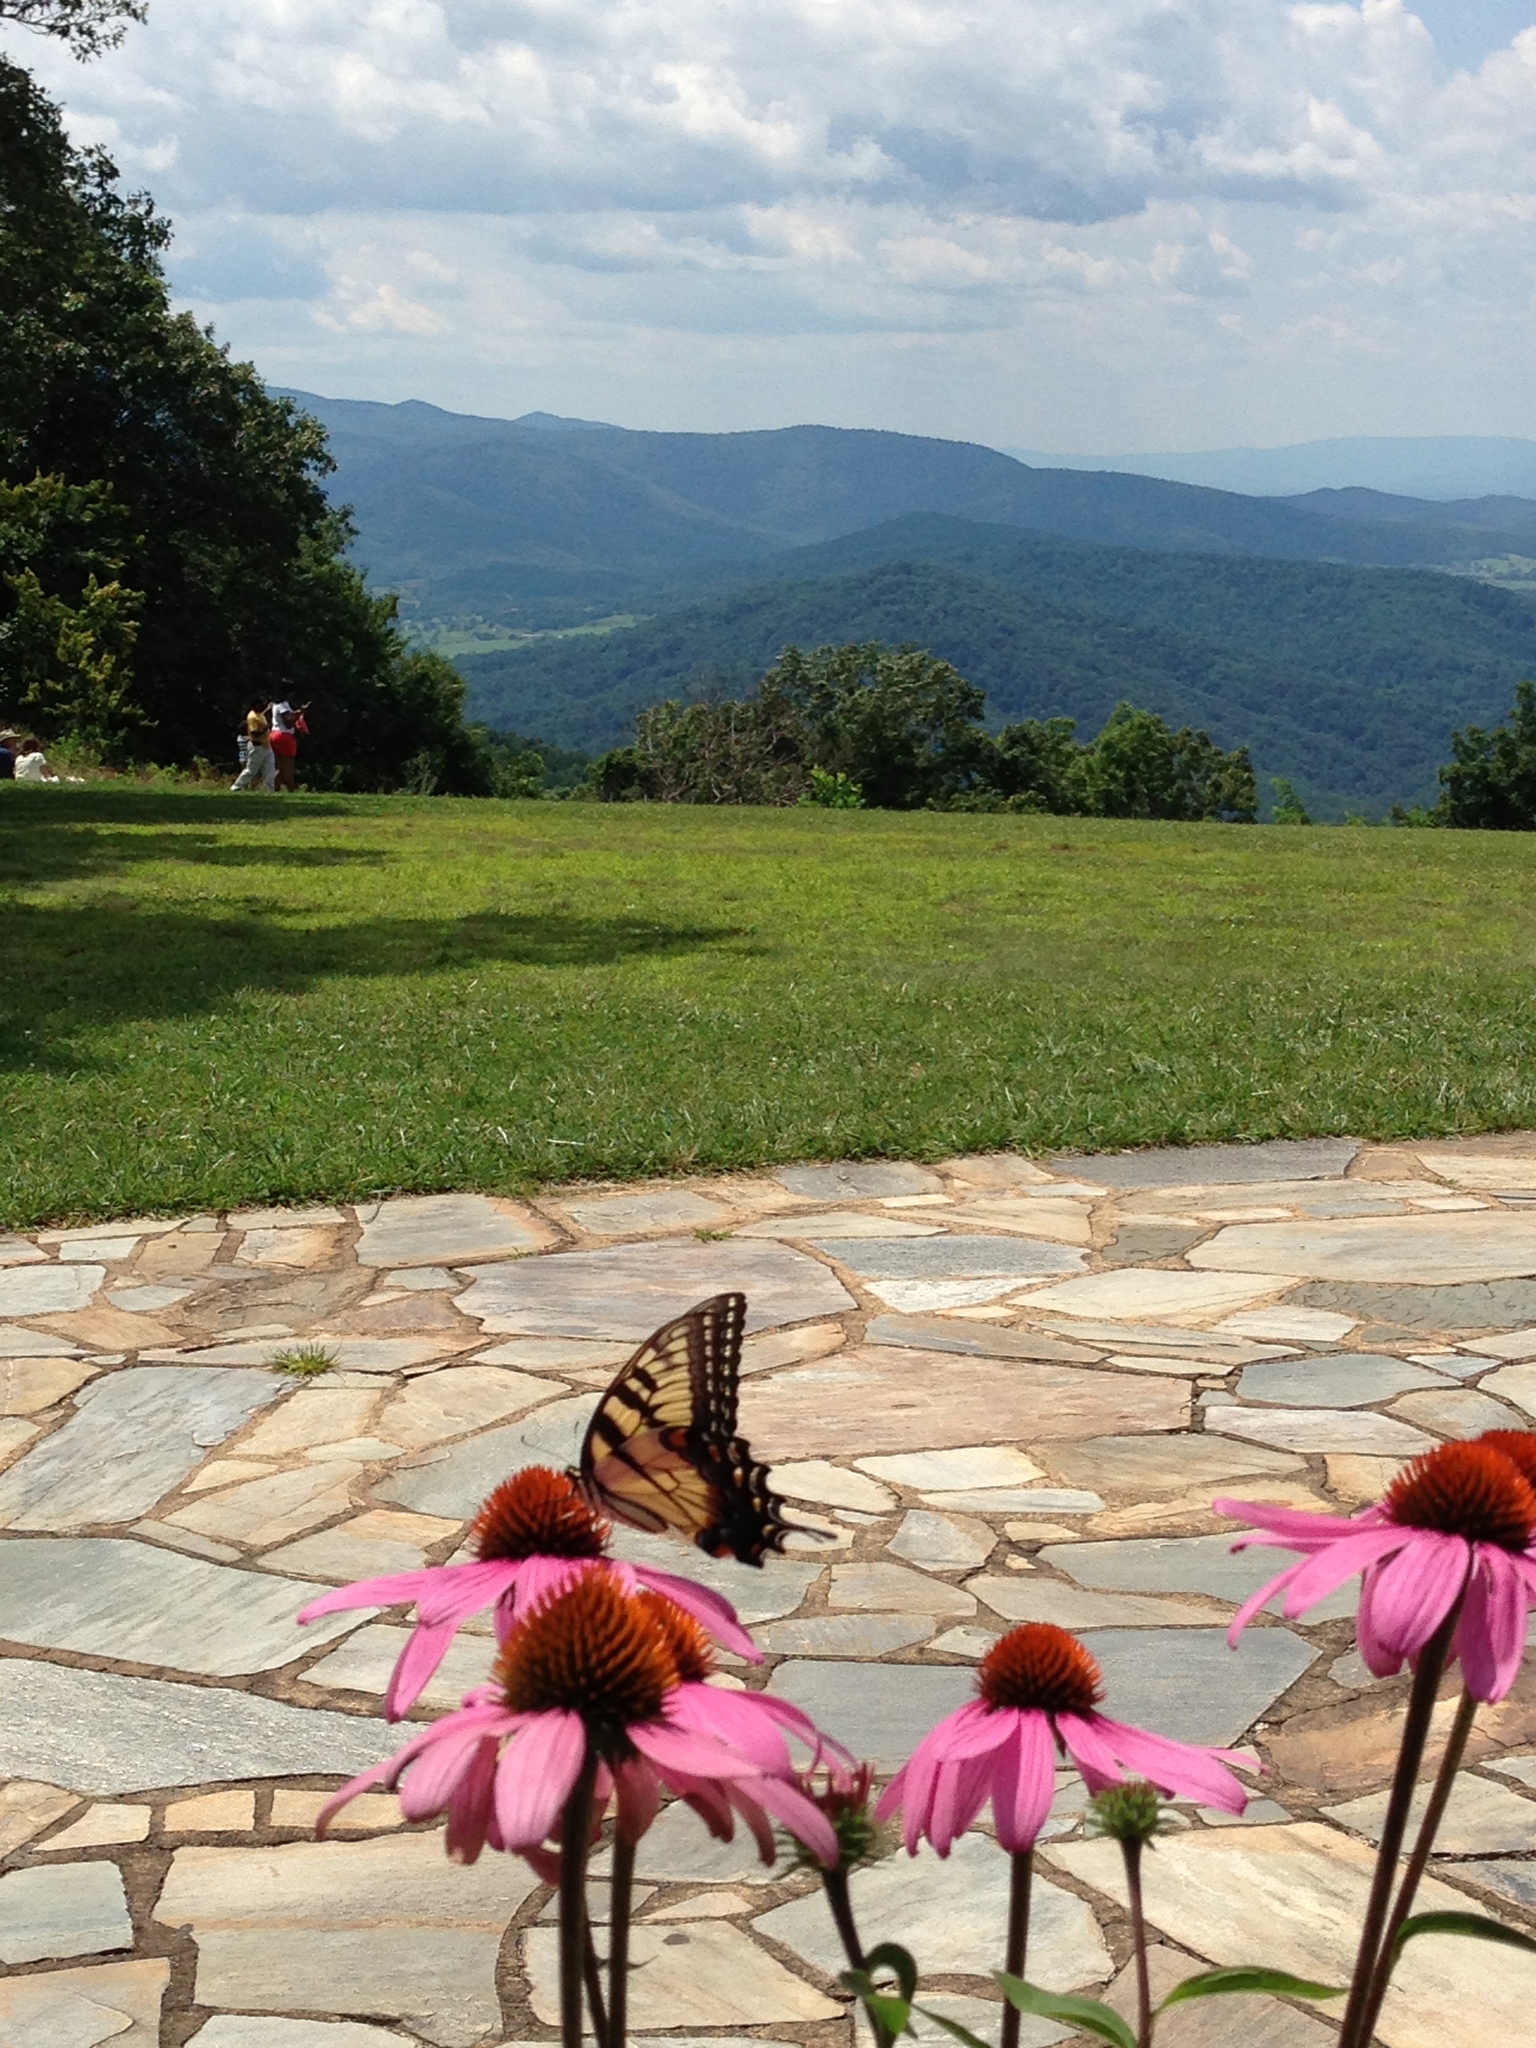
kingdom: Animalia
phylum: Arthropoda
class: Insecta
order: Lepidoptera
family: Papilionidae
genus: Papilio
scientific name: Papilio glaucus
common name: Tiger swallowtail
